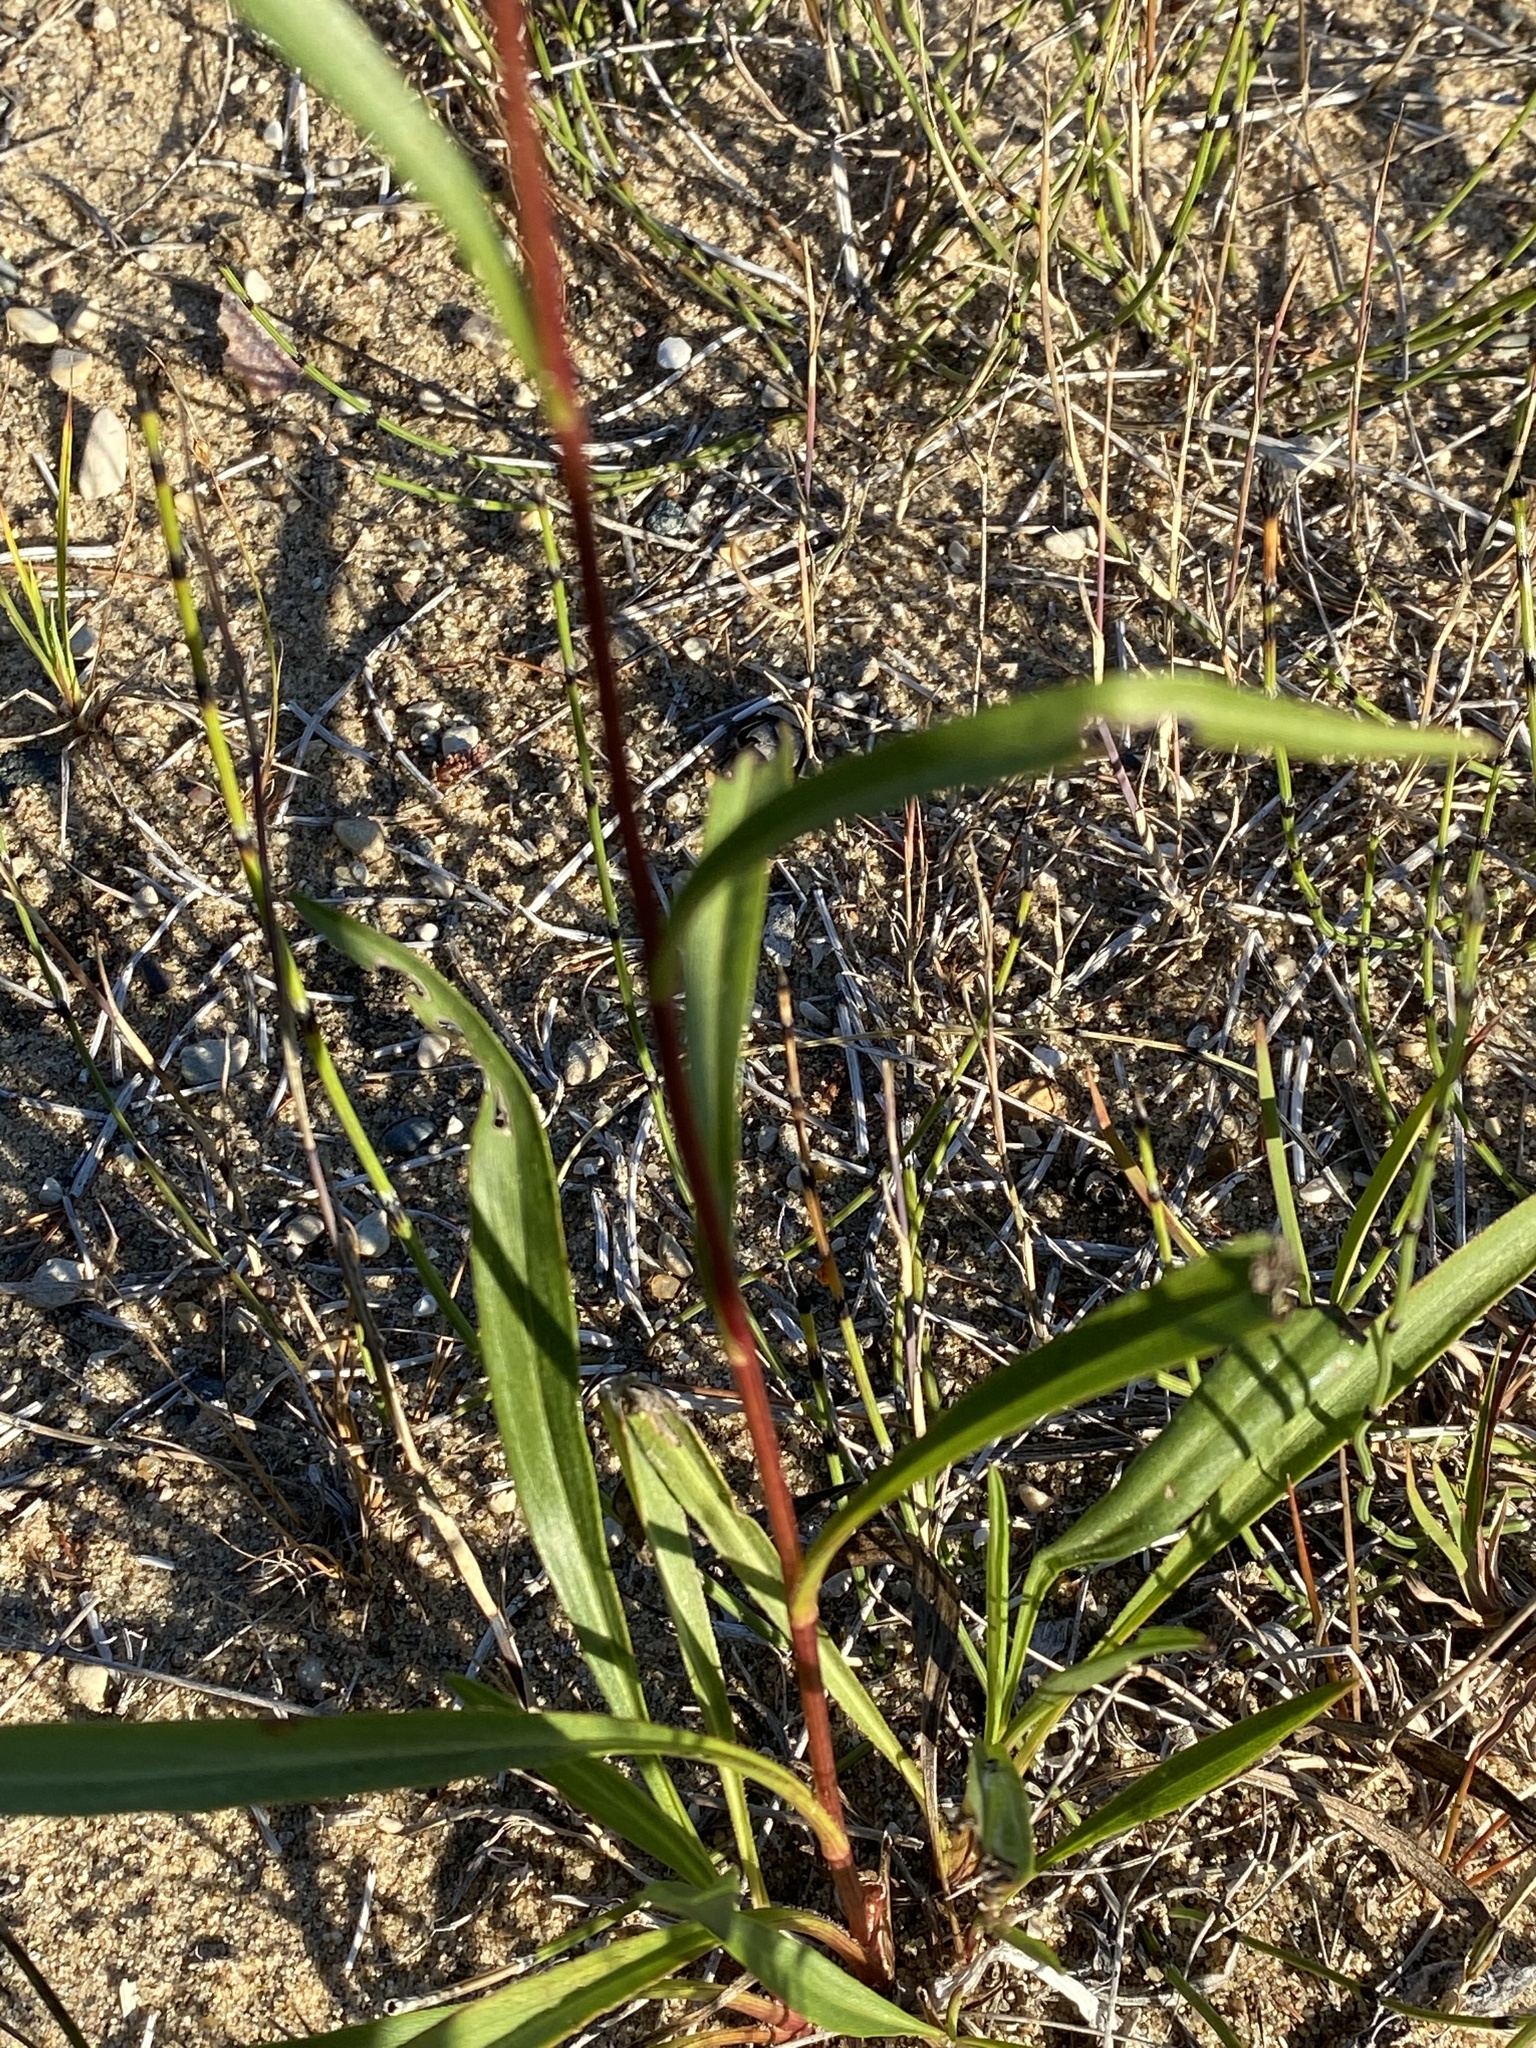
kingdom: Plantae
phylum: Tracheophyta
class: Magnoliopsida
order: Asterales
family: Asteraceae
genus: Solidago
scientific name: Solidago houghtonii
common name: Houghton's goldenrod
